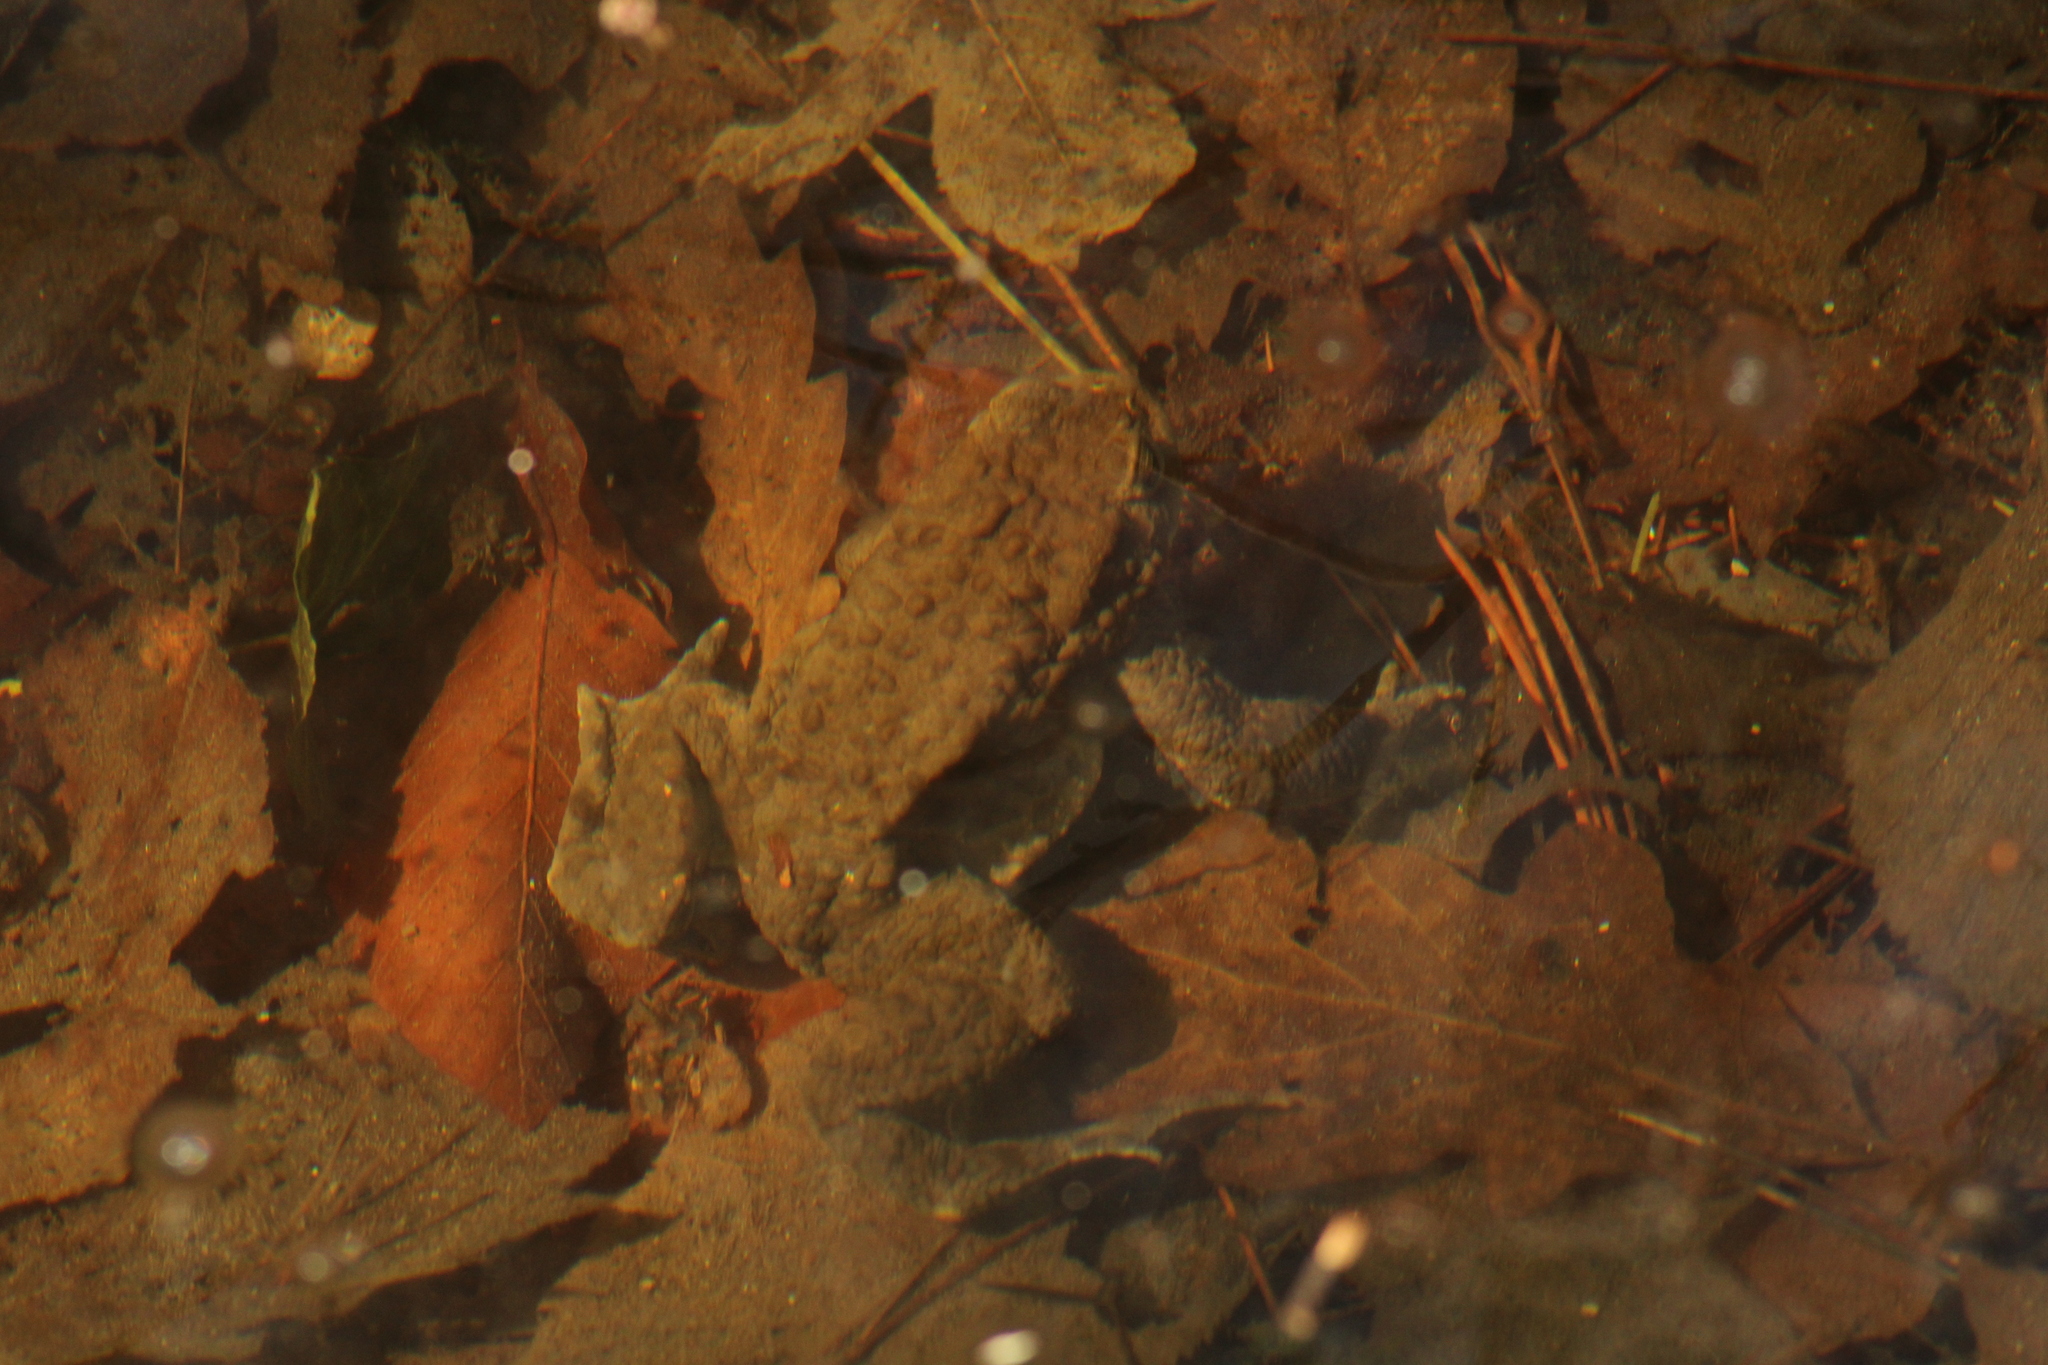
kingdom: Animalia
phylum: Chordata
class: Amphibia
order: Anura
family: Bufonidae
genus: Bufo
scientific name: Bufo bufo
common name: Common toad
